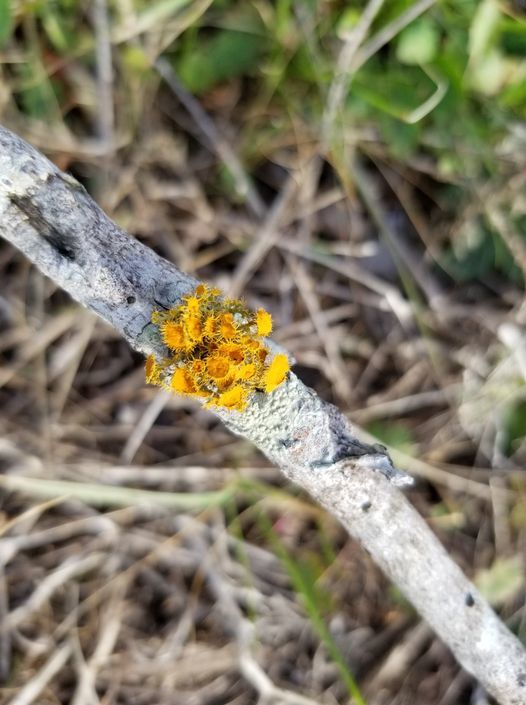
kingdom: Fungi
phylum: Ascomycota
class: Lecanoromycetes
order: Teloschistales
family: Teloschistaceae
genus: Niorma
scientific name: Niorma chrysophthalma
